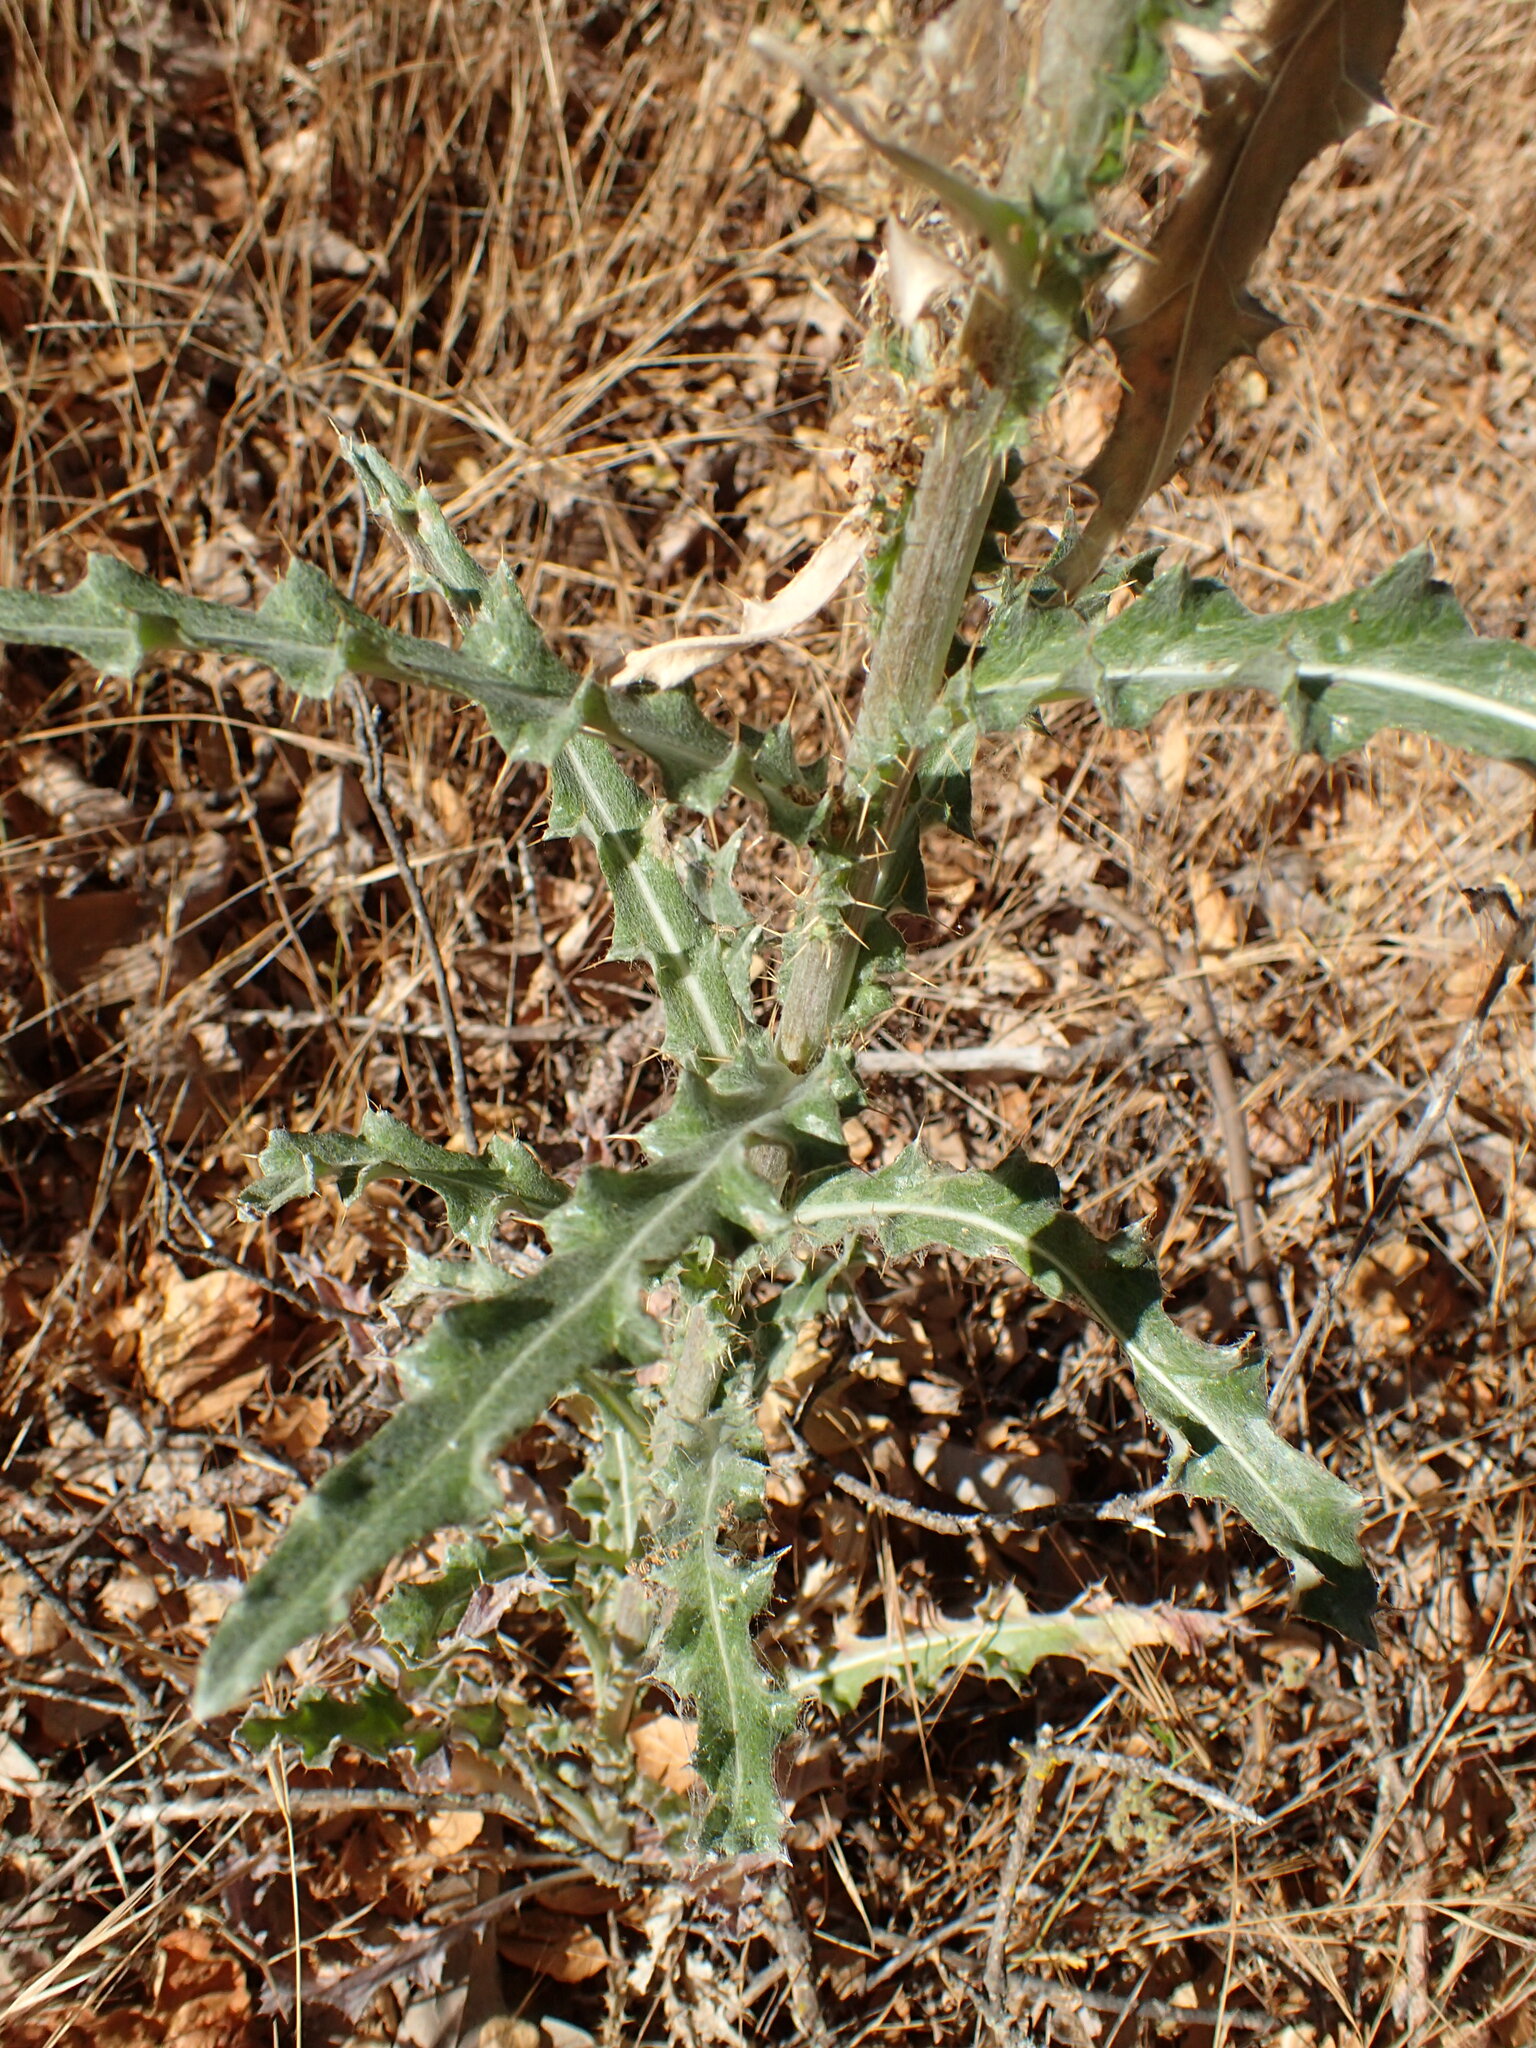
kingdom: Plantae
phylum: Tracheophyta
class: Magnoliopsida
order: Asterales
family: Asteraceae
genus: Cirsium
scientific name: Cirsium occidentale
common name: Western thistle
